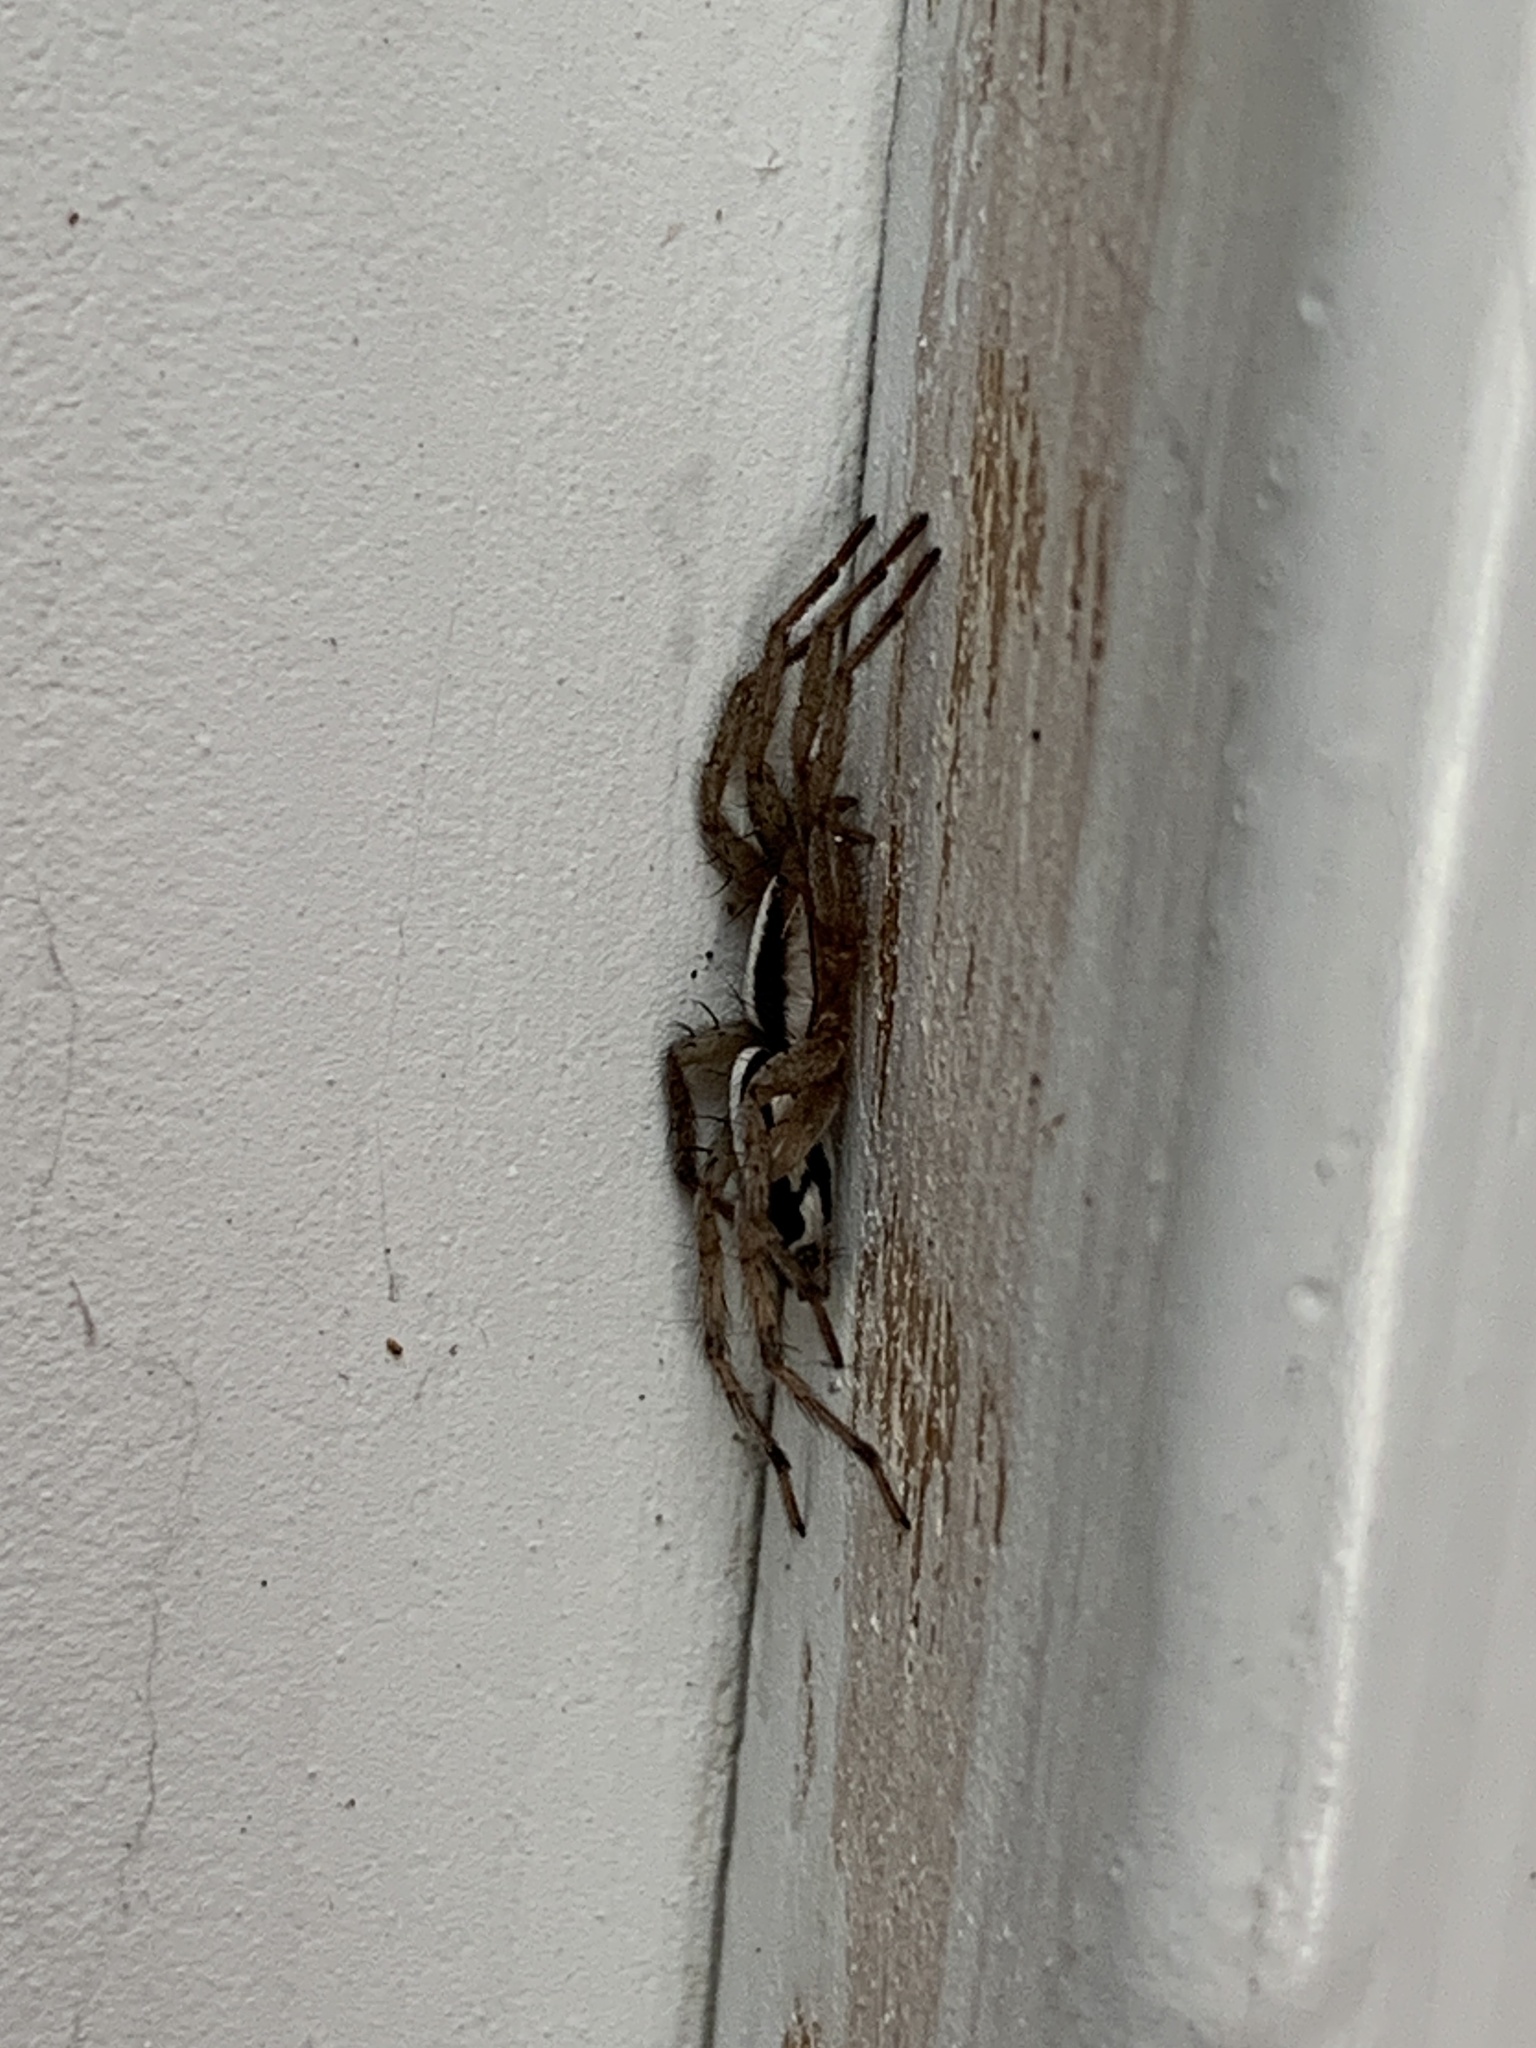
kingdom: Animalia
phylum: Arthropoda
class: Arachnida
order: Araneae
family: Gnaphosidae
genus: Cesonia
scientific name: Cesonia bilineata
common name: Two-lined stealthy ground spider
